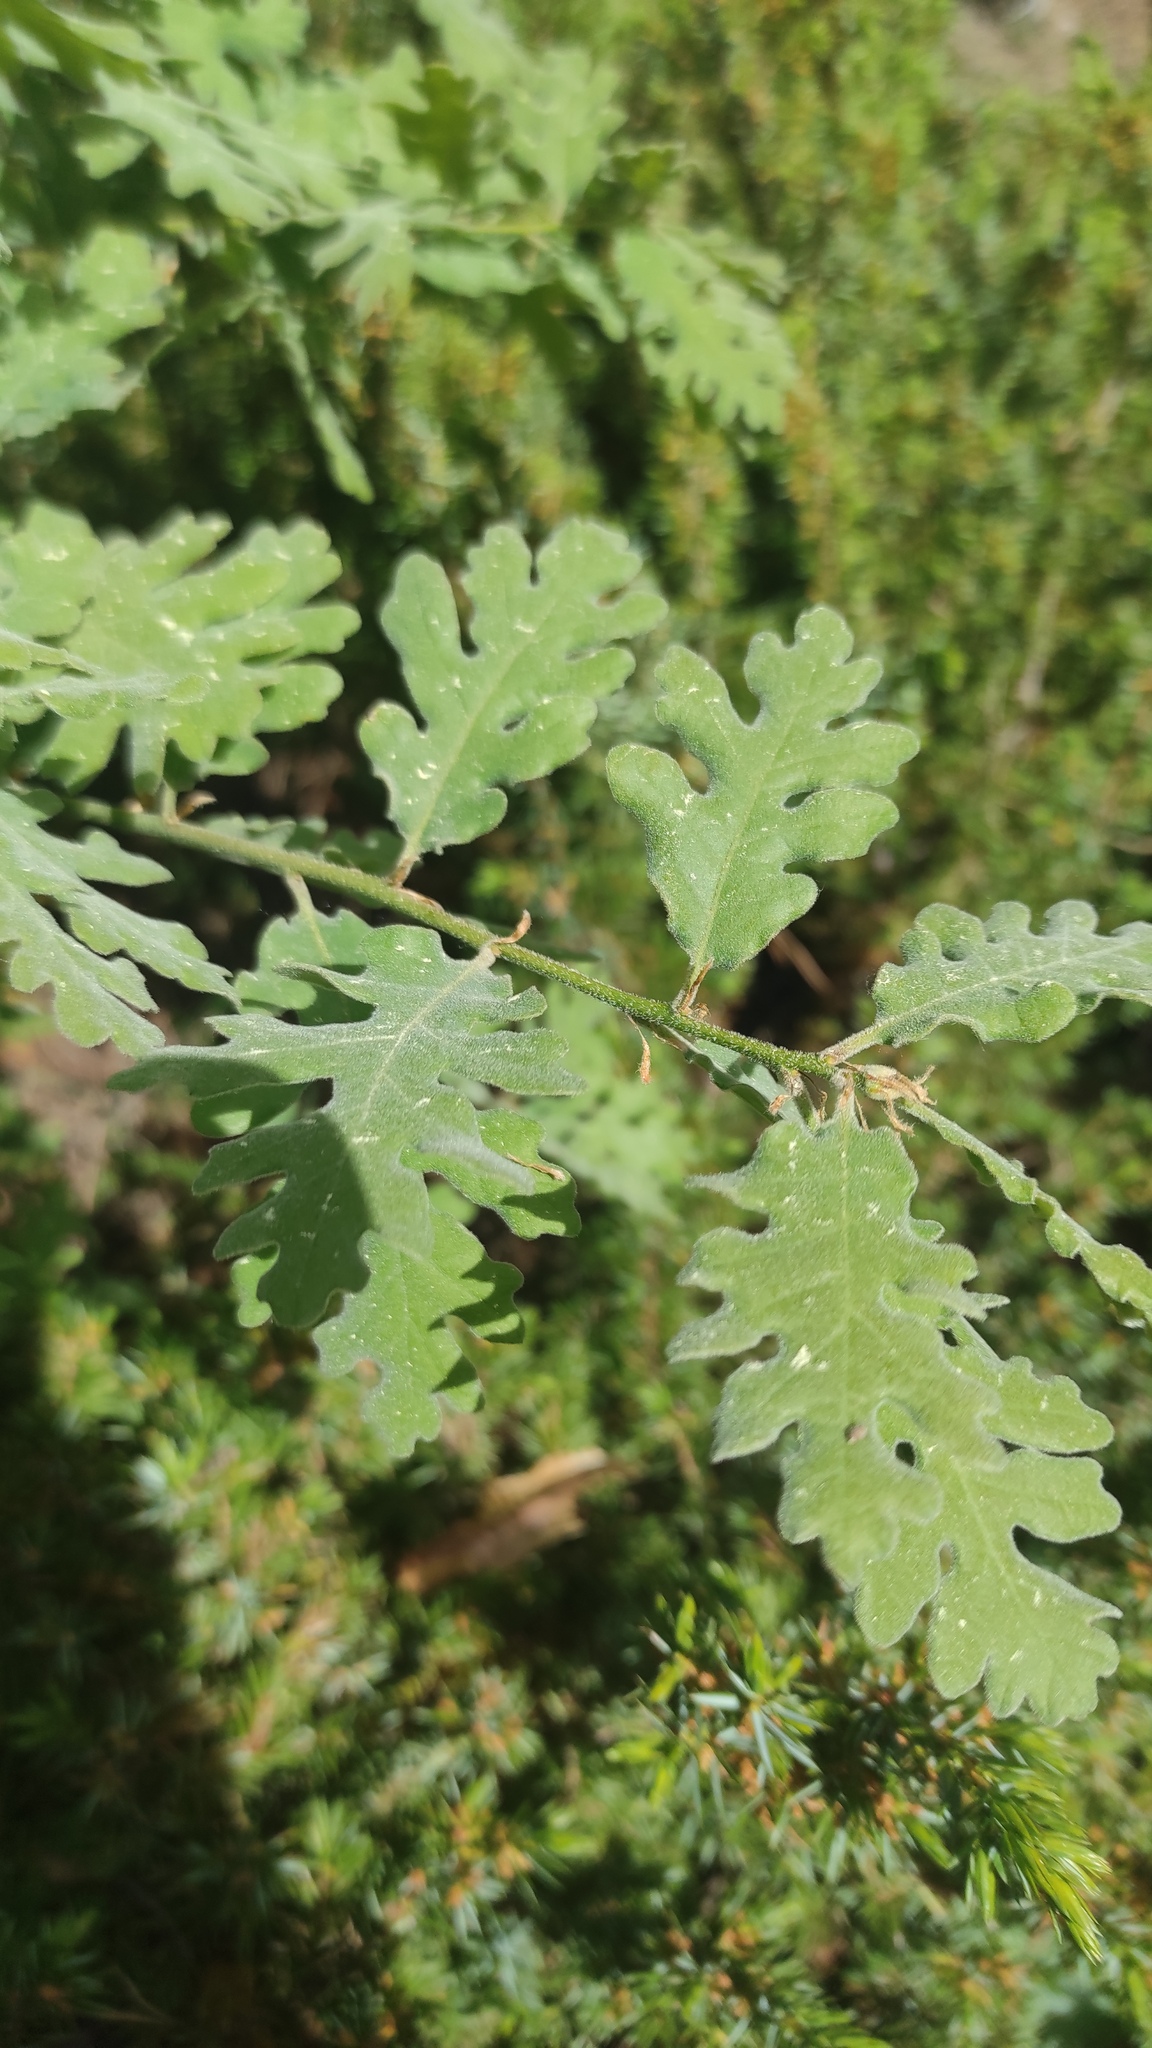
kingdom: Plantae
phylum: Tracheophyta
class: Magnoliopsida
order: Fagales
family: Fagaceae
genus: Quercus
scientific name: Quercus pyrenaica
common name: Pyrenean oak
